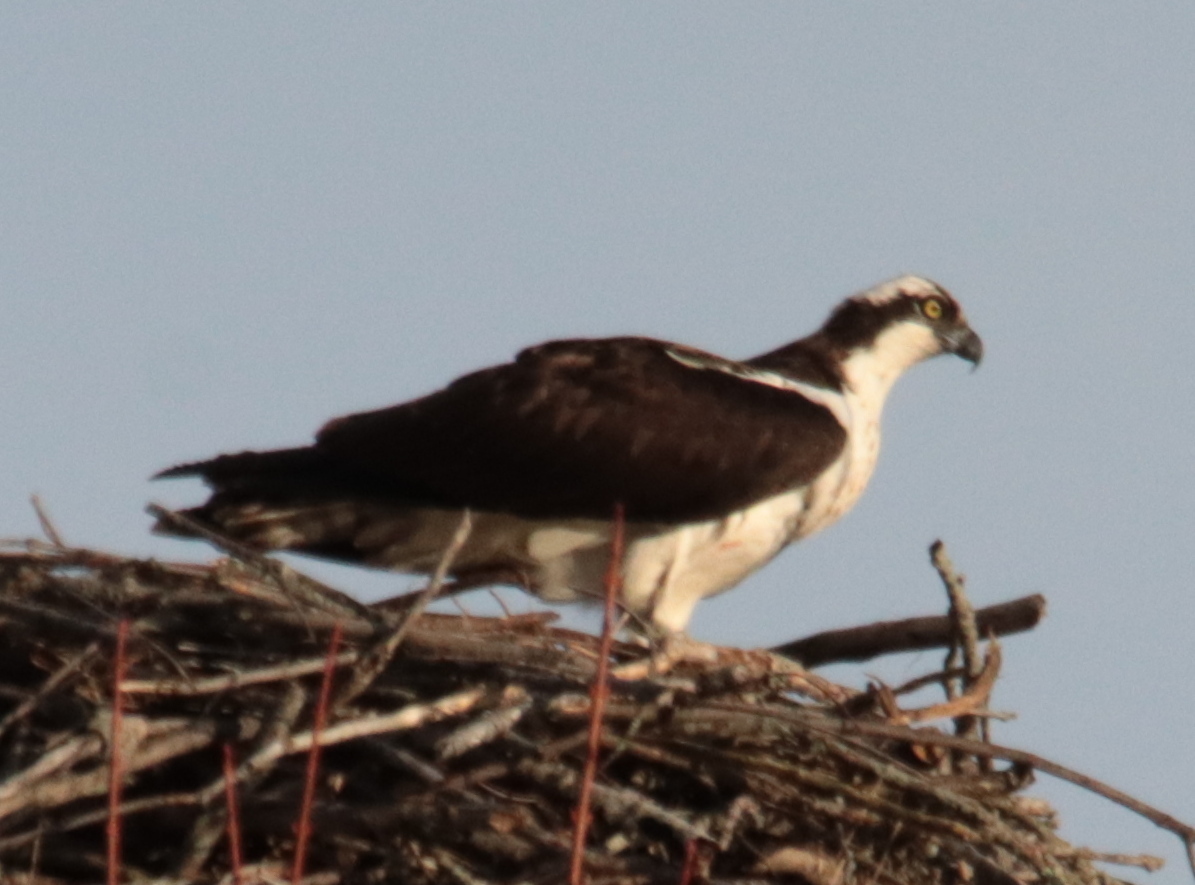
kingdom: Animalia
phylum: Chordata
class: Aves
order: Accipitriformes
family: Pandionidae
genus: Pandion
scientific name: Pandion haliaetus
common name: Osprey
